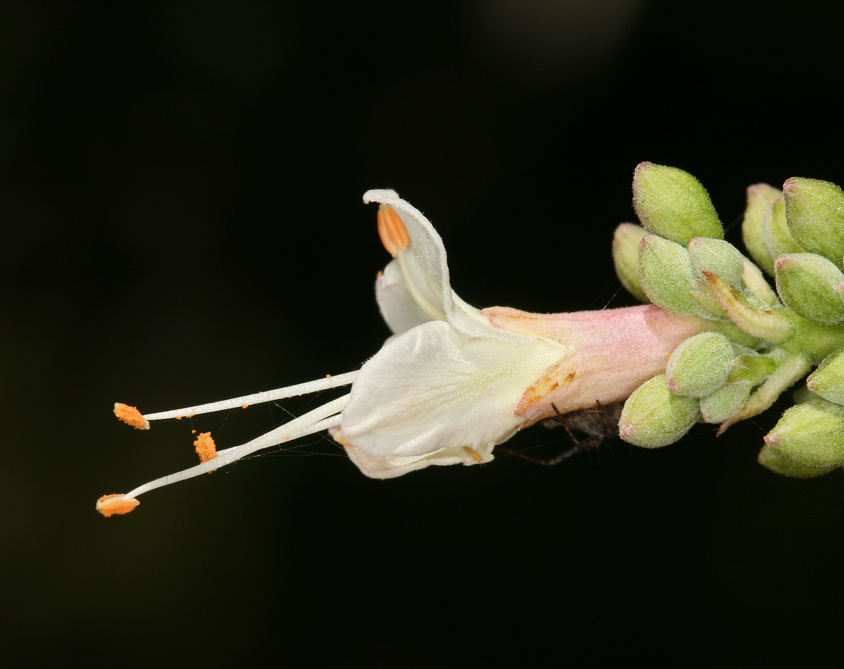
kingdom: Plantae
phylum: Tracheophyta
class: Magnoliopsida
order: Sapindales
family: Sapindaceae
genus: Aesculus
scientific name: Aesculus californica
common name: California buckeye
